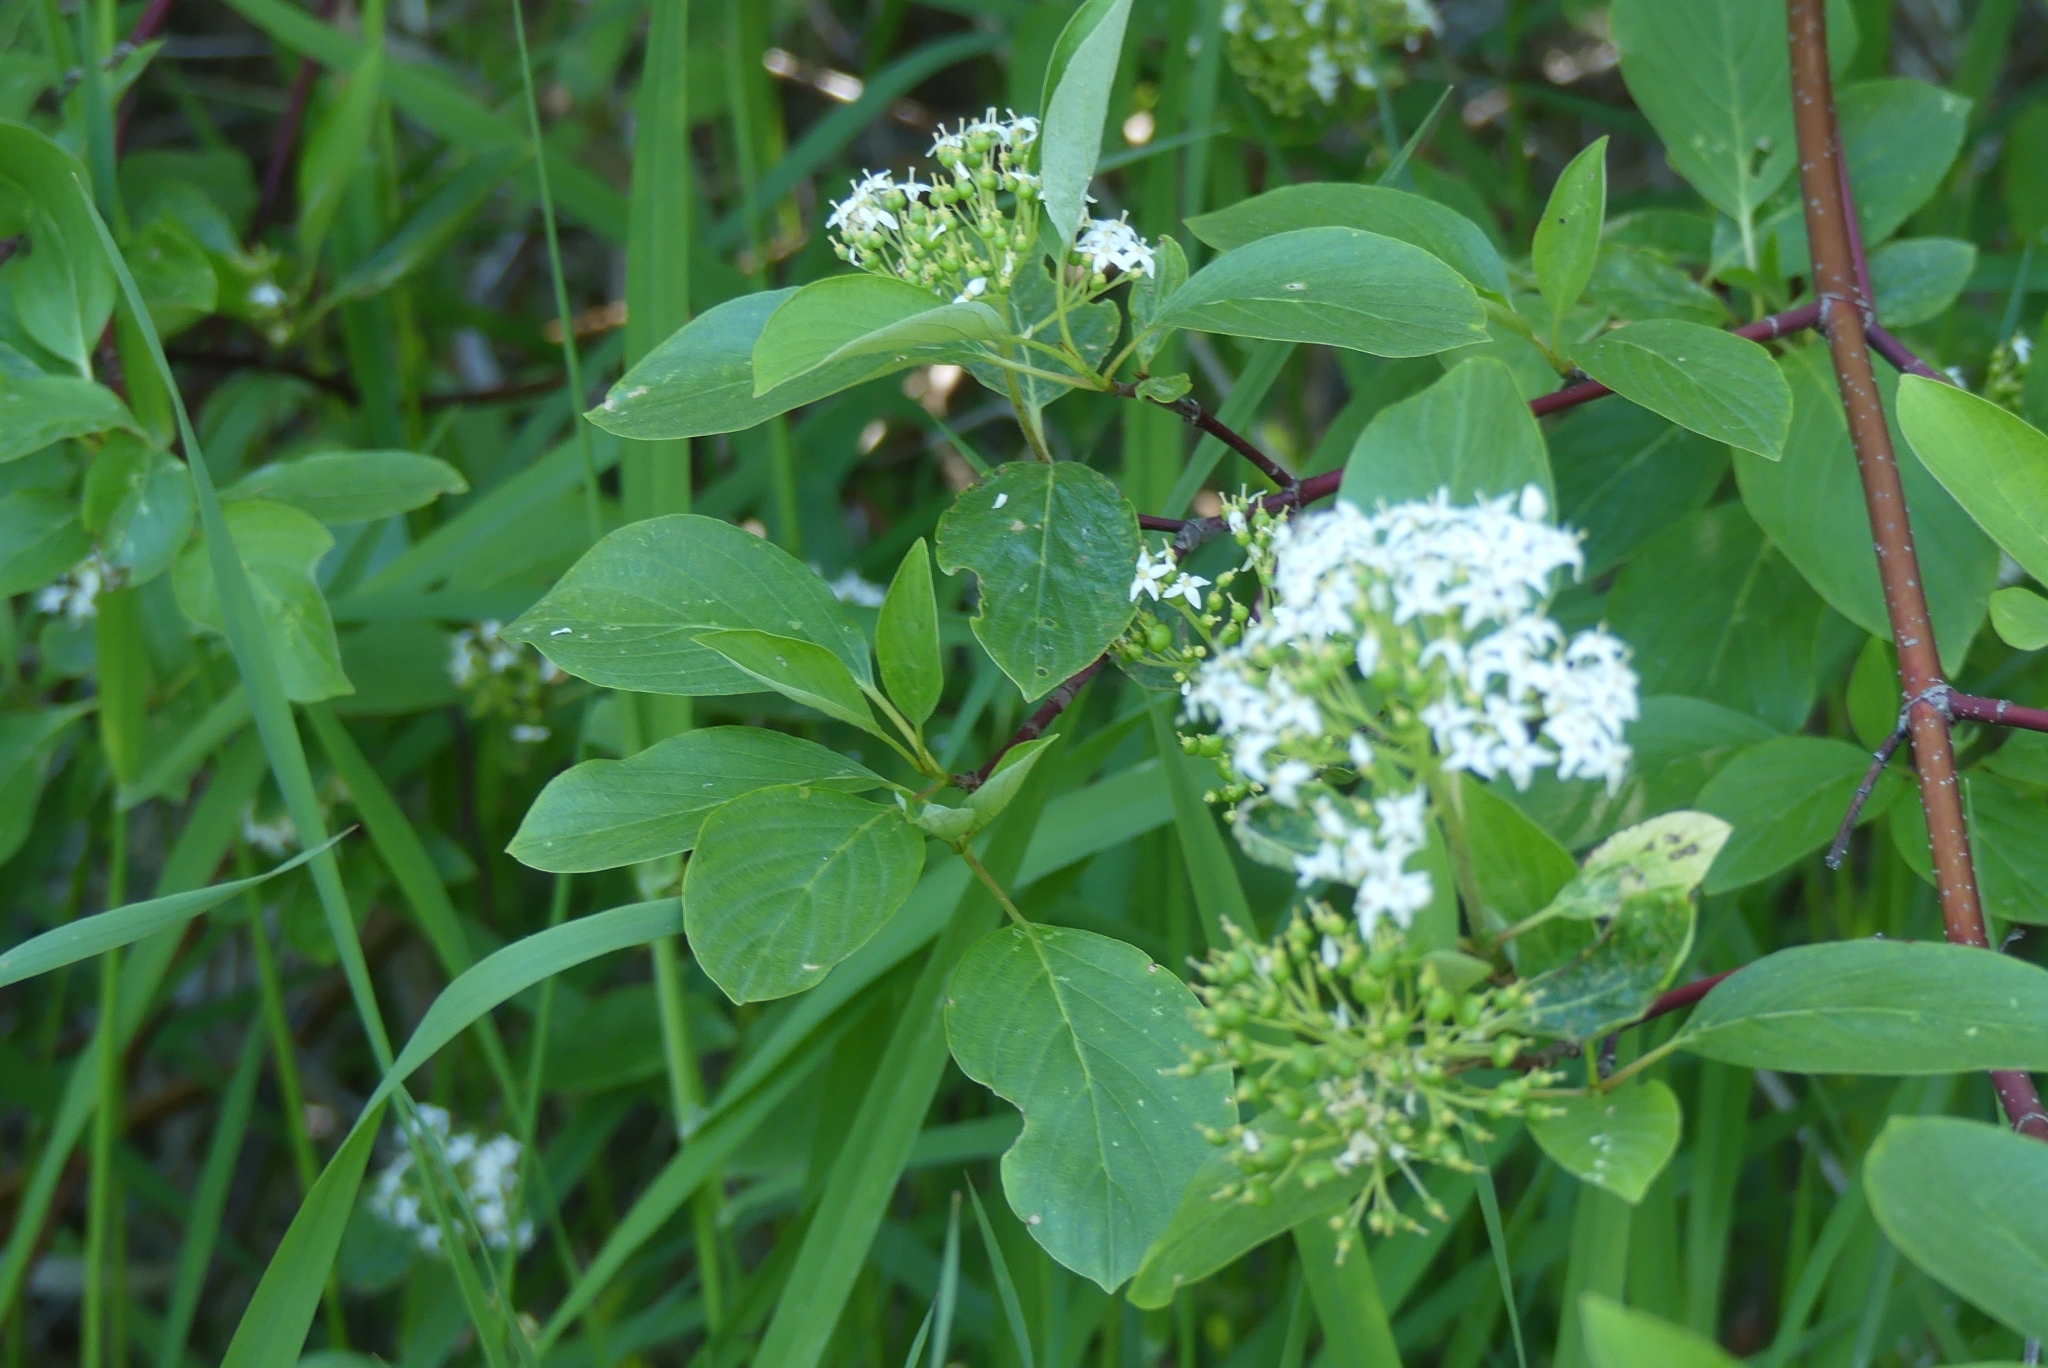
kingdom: Plantae
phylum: Tracheophyta
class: Magnoliopsida
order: Cornales
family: Cornaceae
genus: Cornus
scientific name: Cornus sericea
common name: Red-osier dogwood
